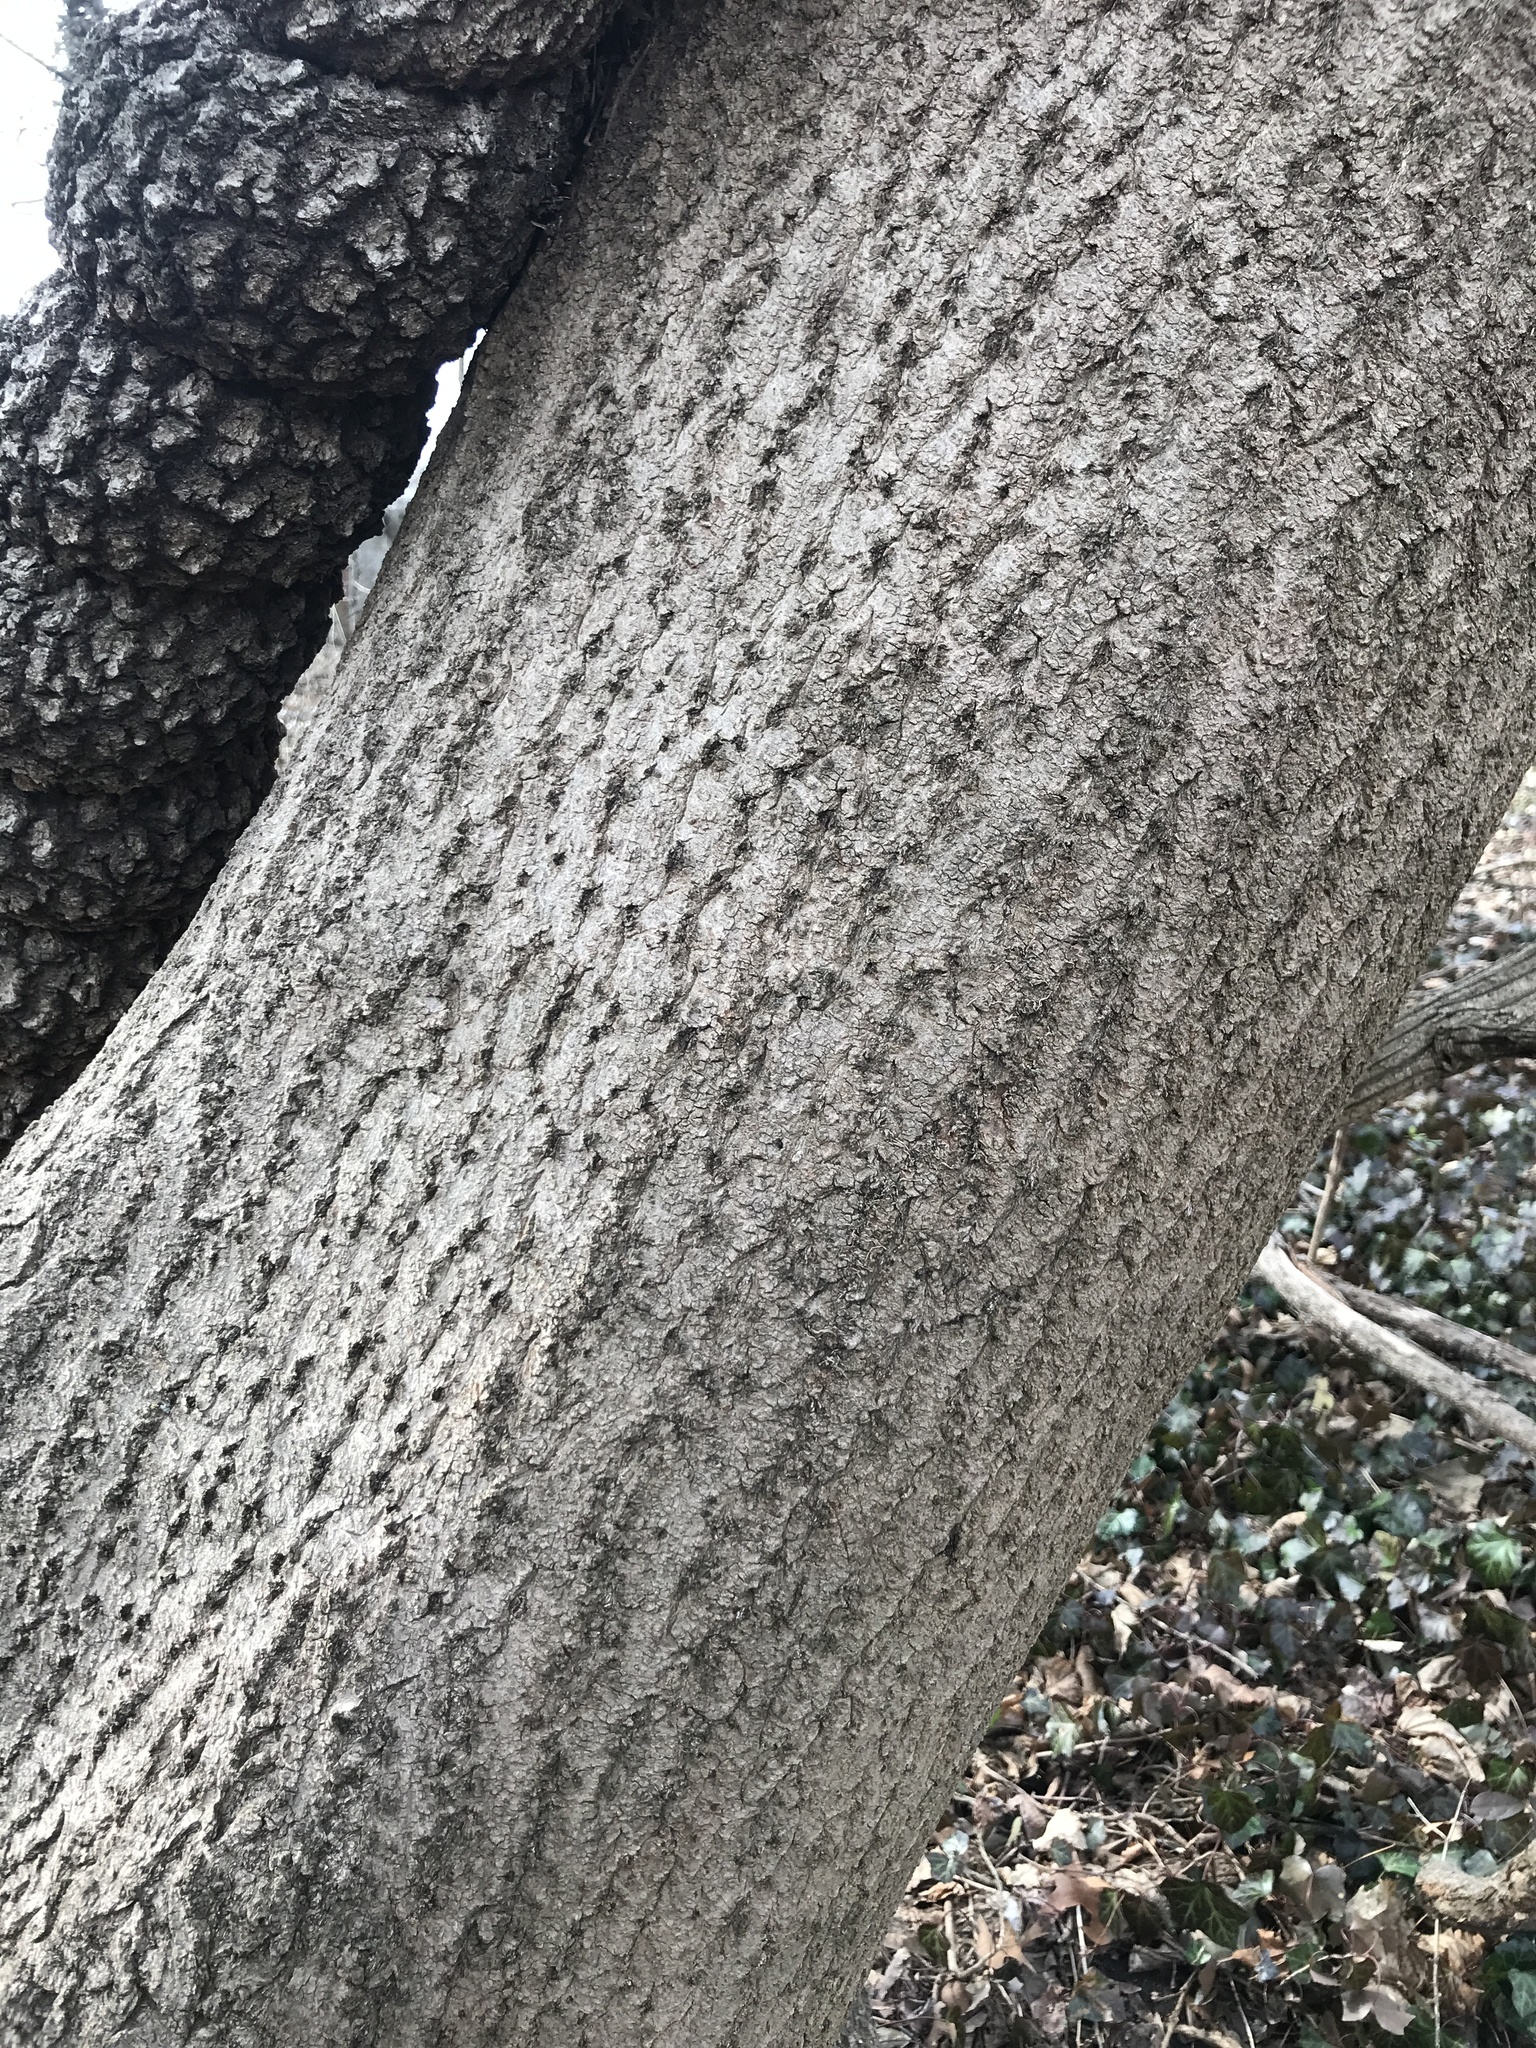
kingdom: Plantae
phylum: Tracheophyta
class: Magnoliopsida
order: Lamiales
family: Paulowniaceae
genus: Paulownia
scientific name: Paulownia tomentosa
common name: Foxglove-tree
